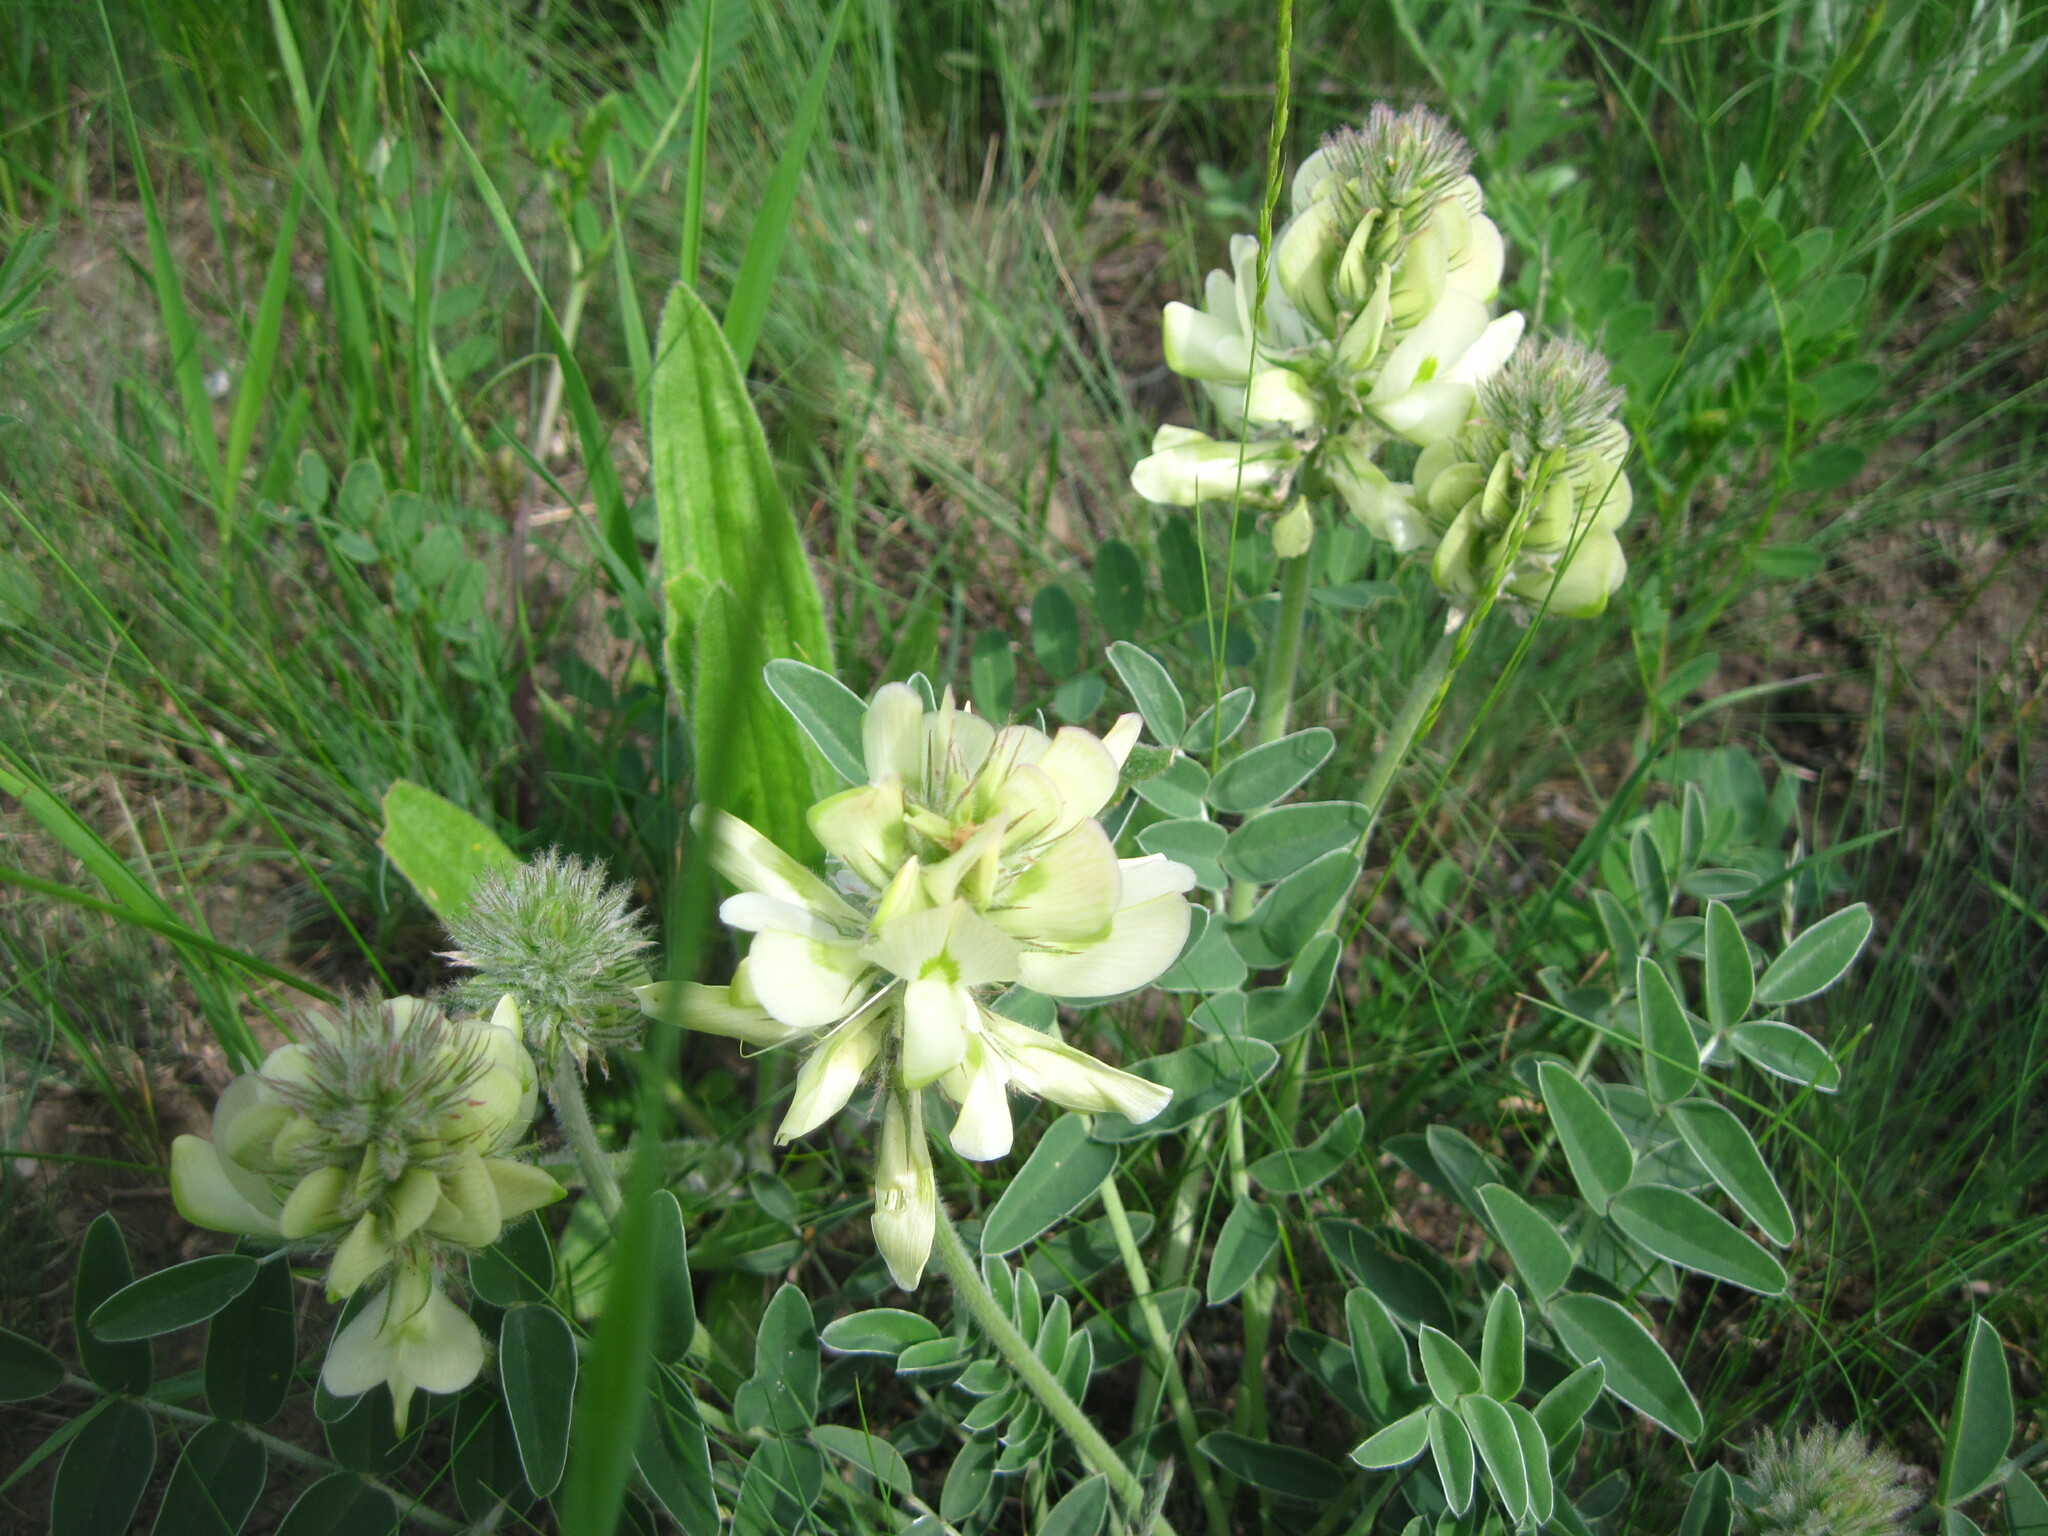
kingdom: Plantae
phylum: Tracheophyta
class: Magnoliopsida
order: Fabales
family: Fabaceae
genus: Hedysarum
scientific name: Hedysarum grandiflorum
